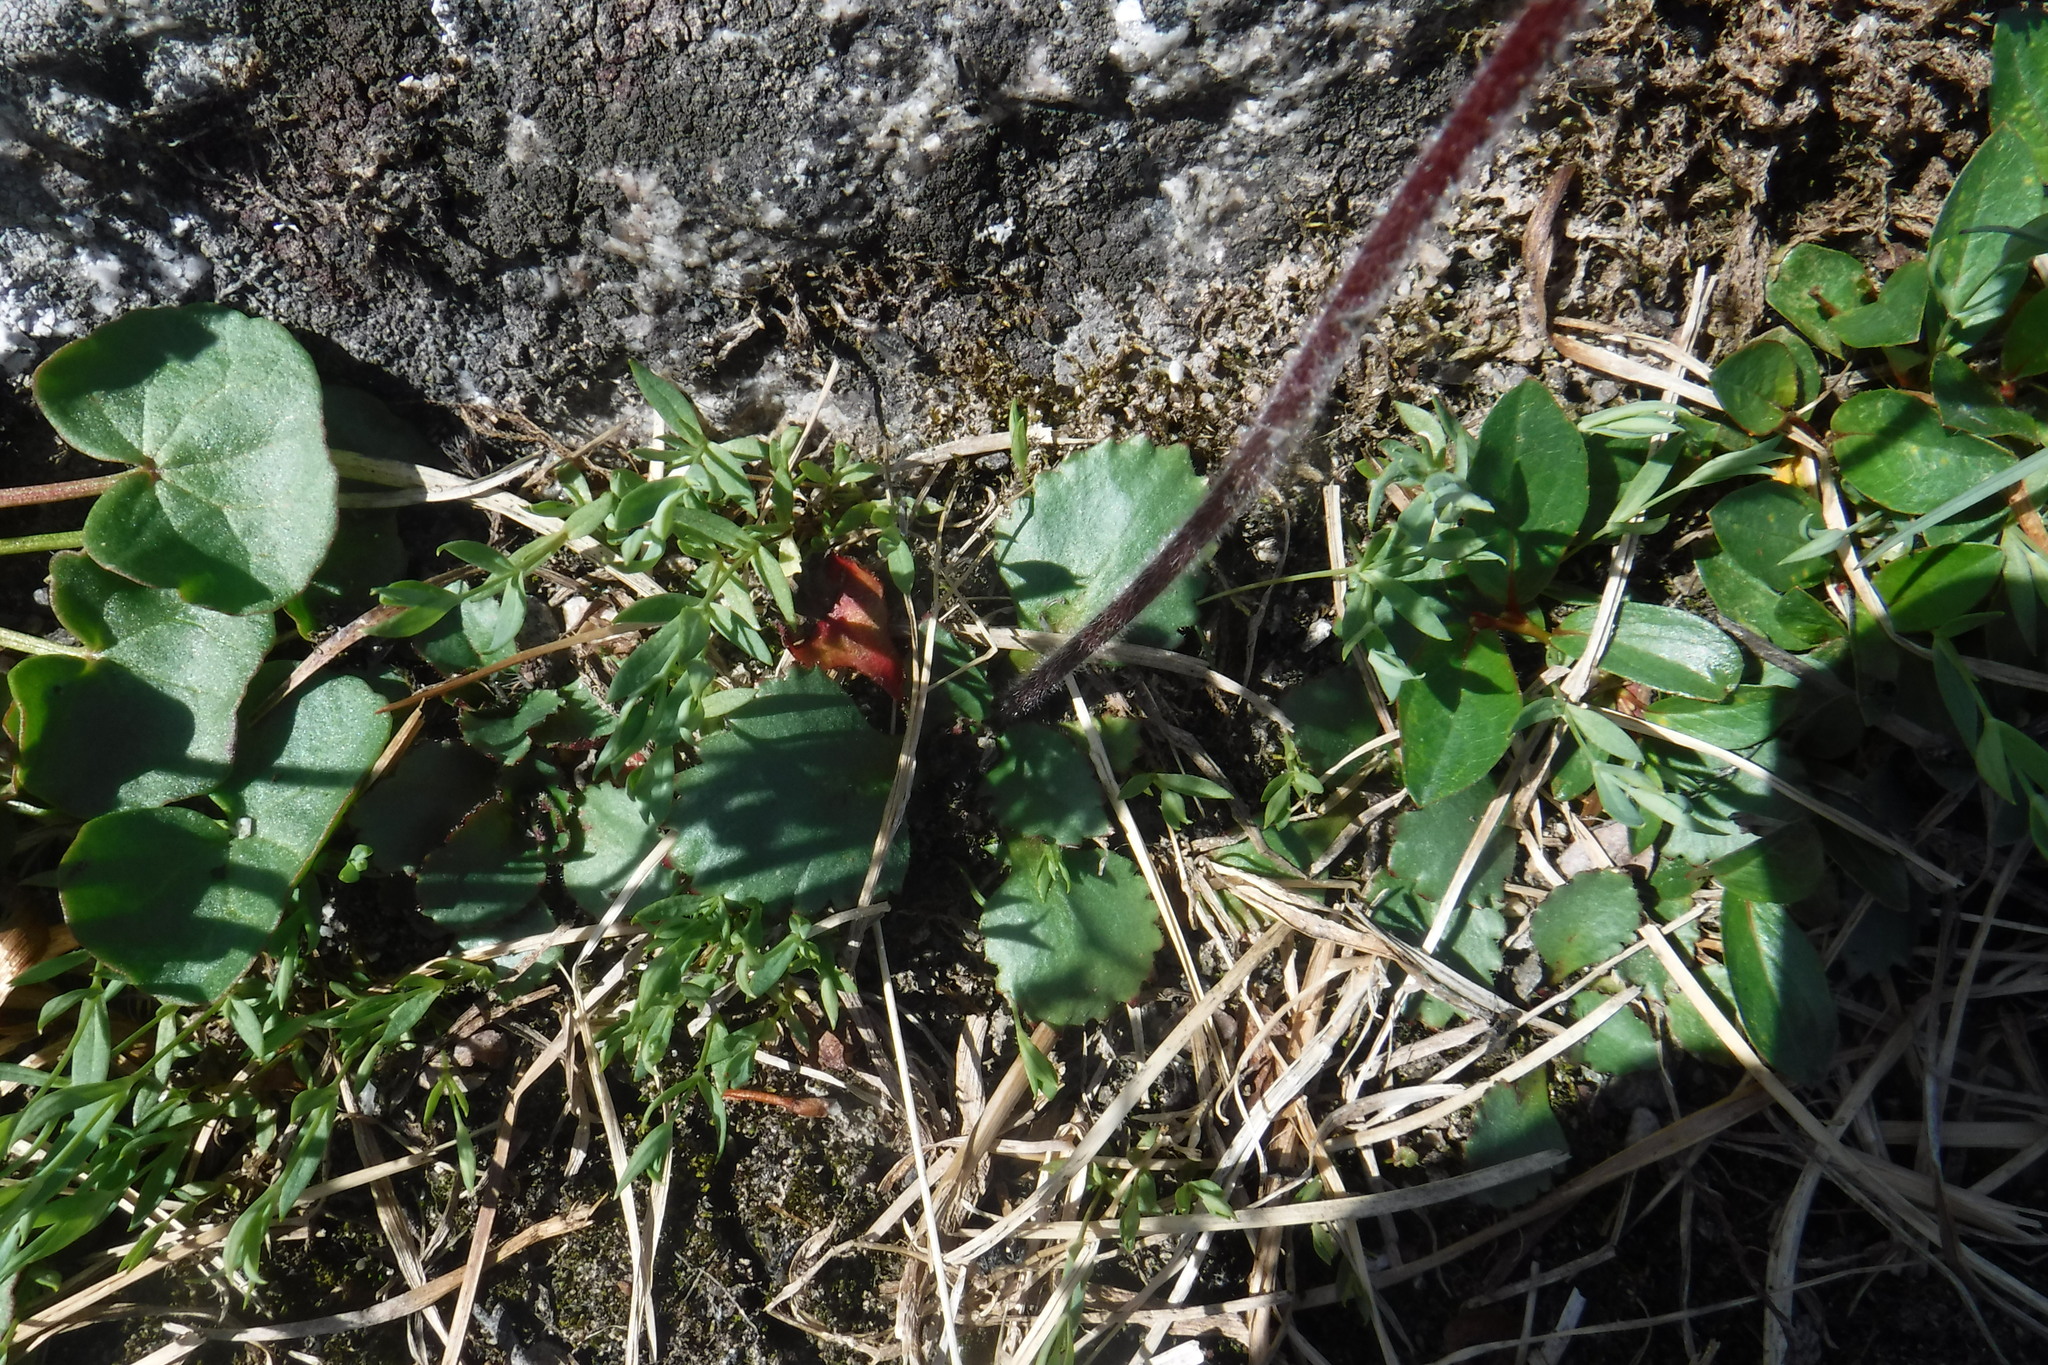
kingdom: Plantae
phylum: Tracheophyta
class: Magnoliopsida
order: Saxifragales
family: Saxifragaceae
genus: Micranthes
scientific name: Micranthes nivalis
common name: Alpine saxifrage
